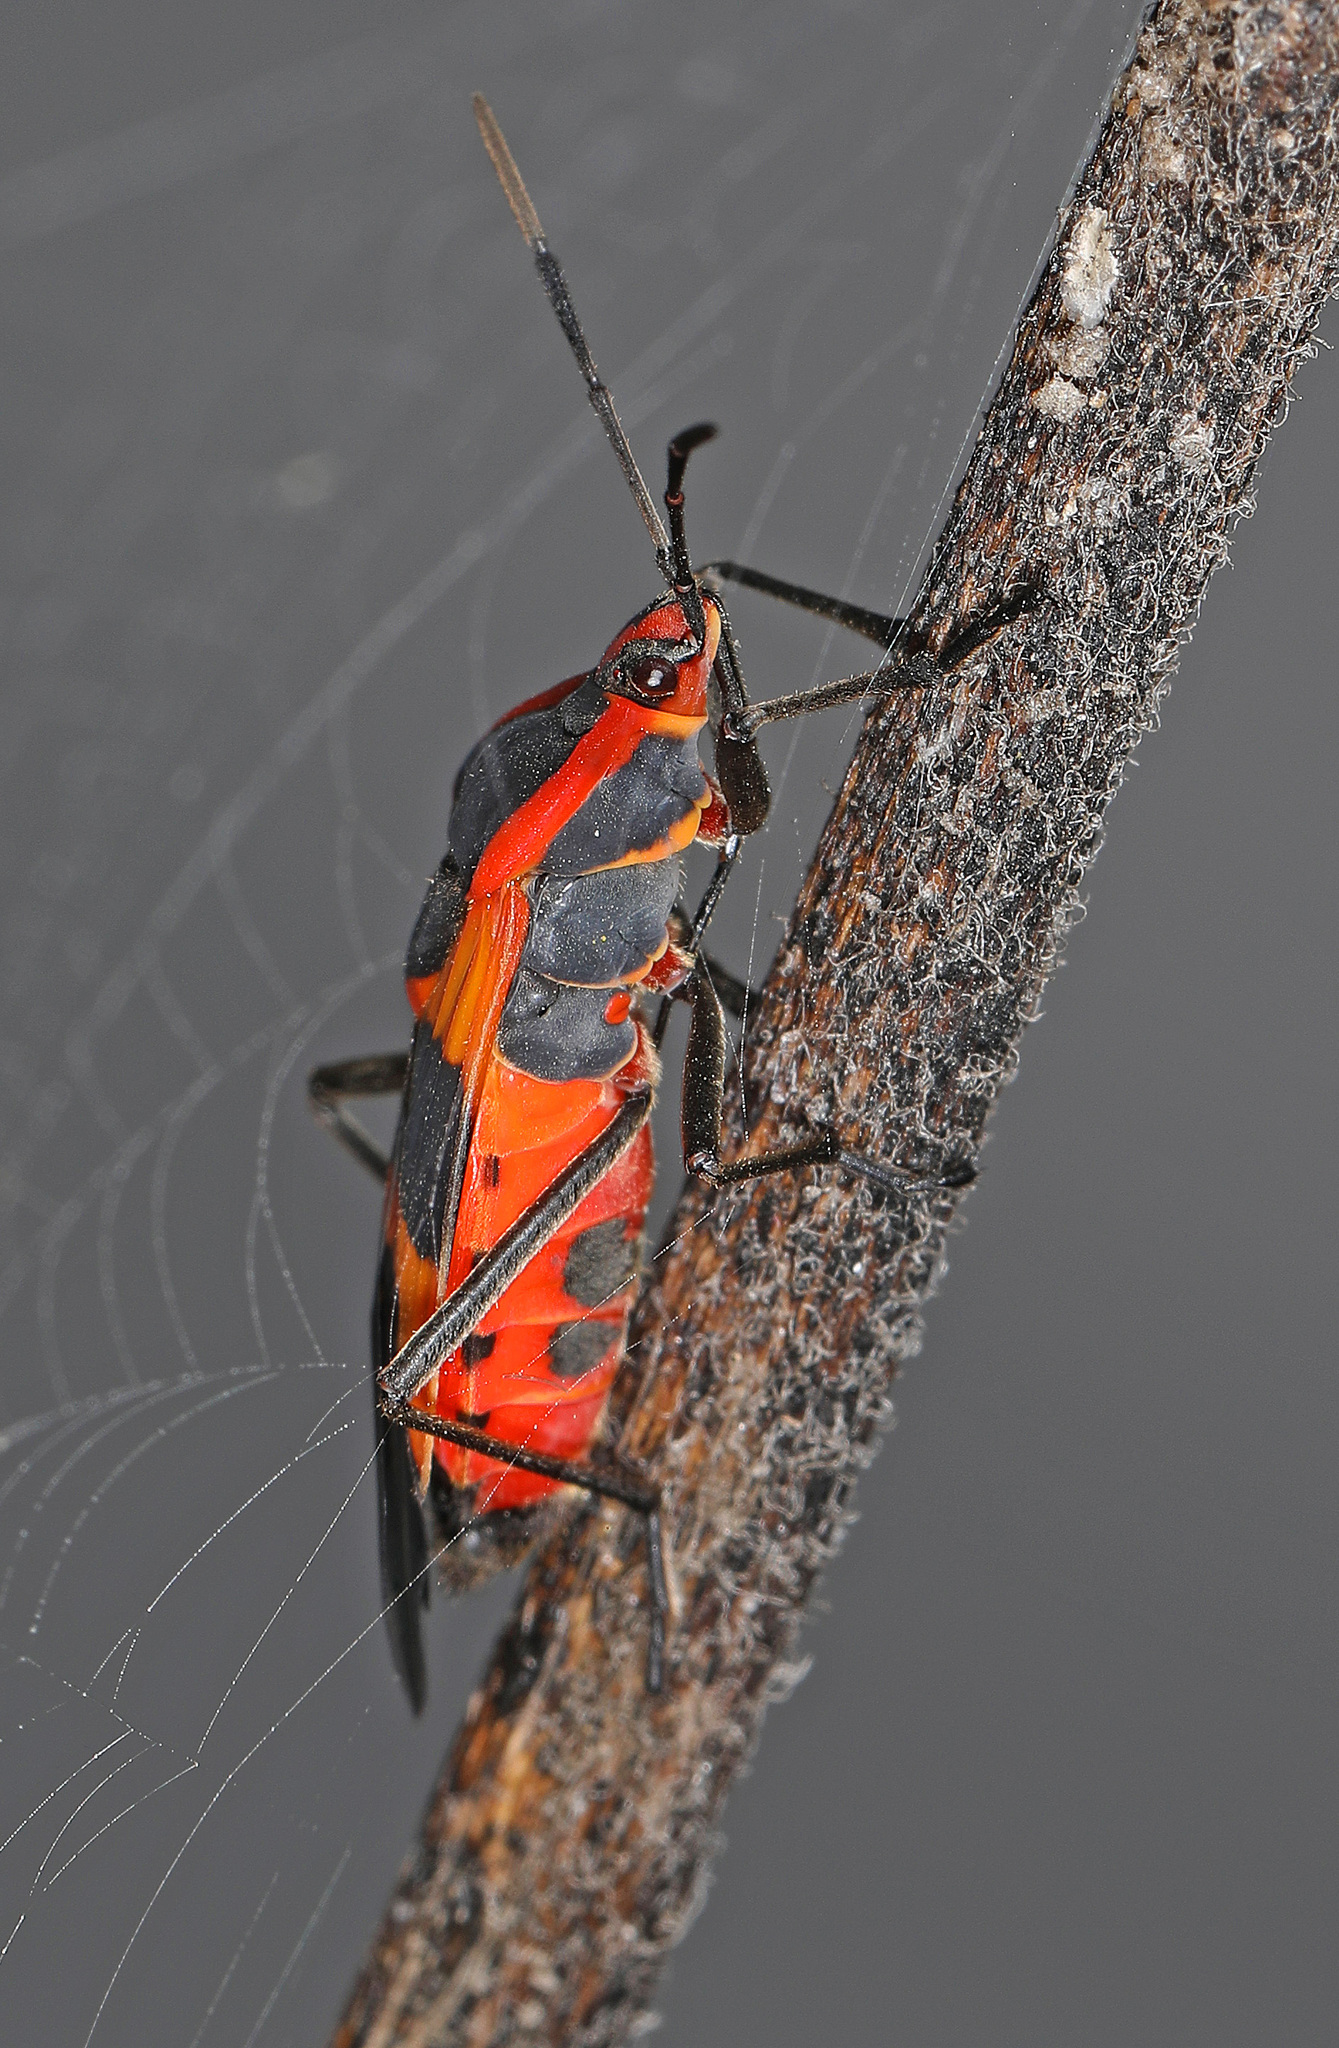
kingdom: Animalia
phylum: Arthropoda
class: Insecta
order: Hemiptera
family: Lygaeidae
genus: Oncopeltus
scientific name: Oncopeltus fasciatus
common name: Large milkweed bug
